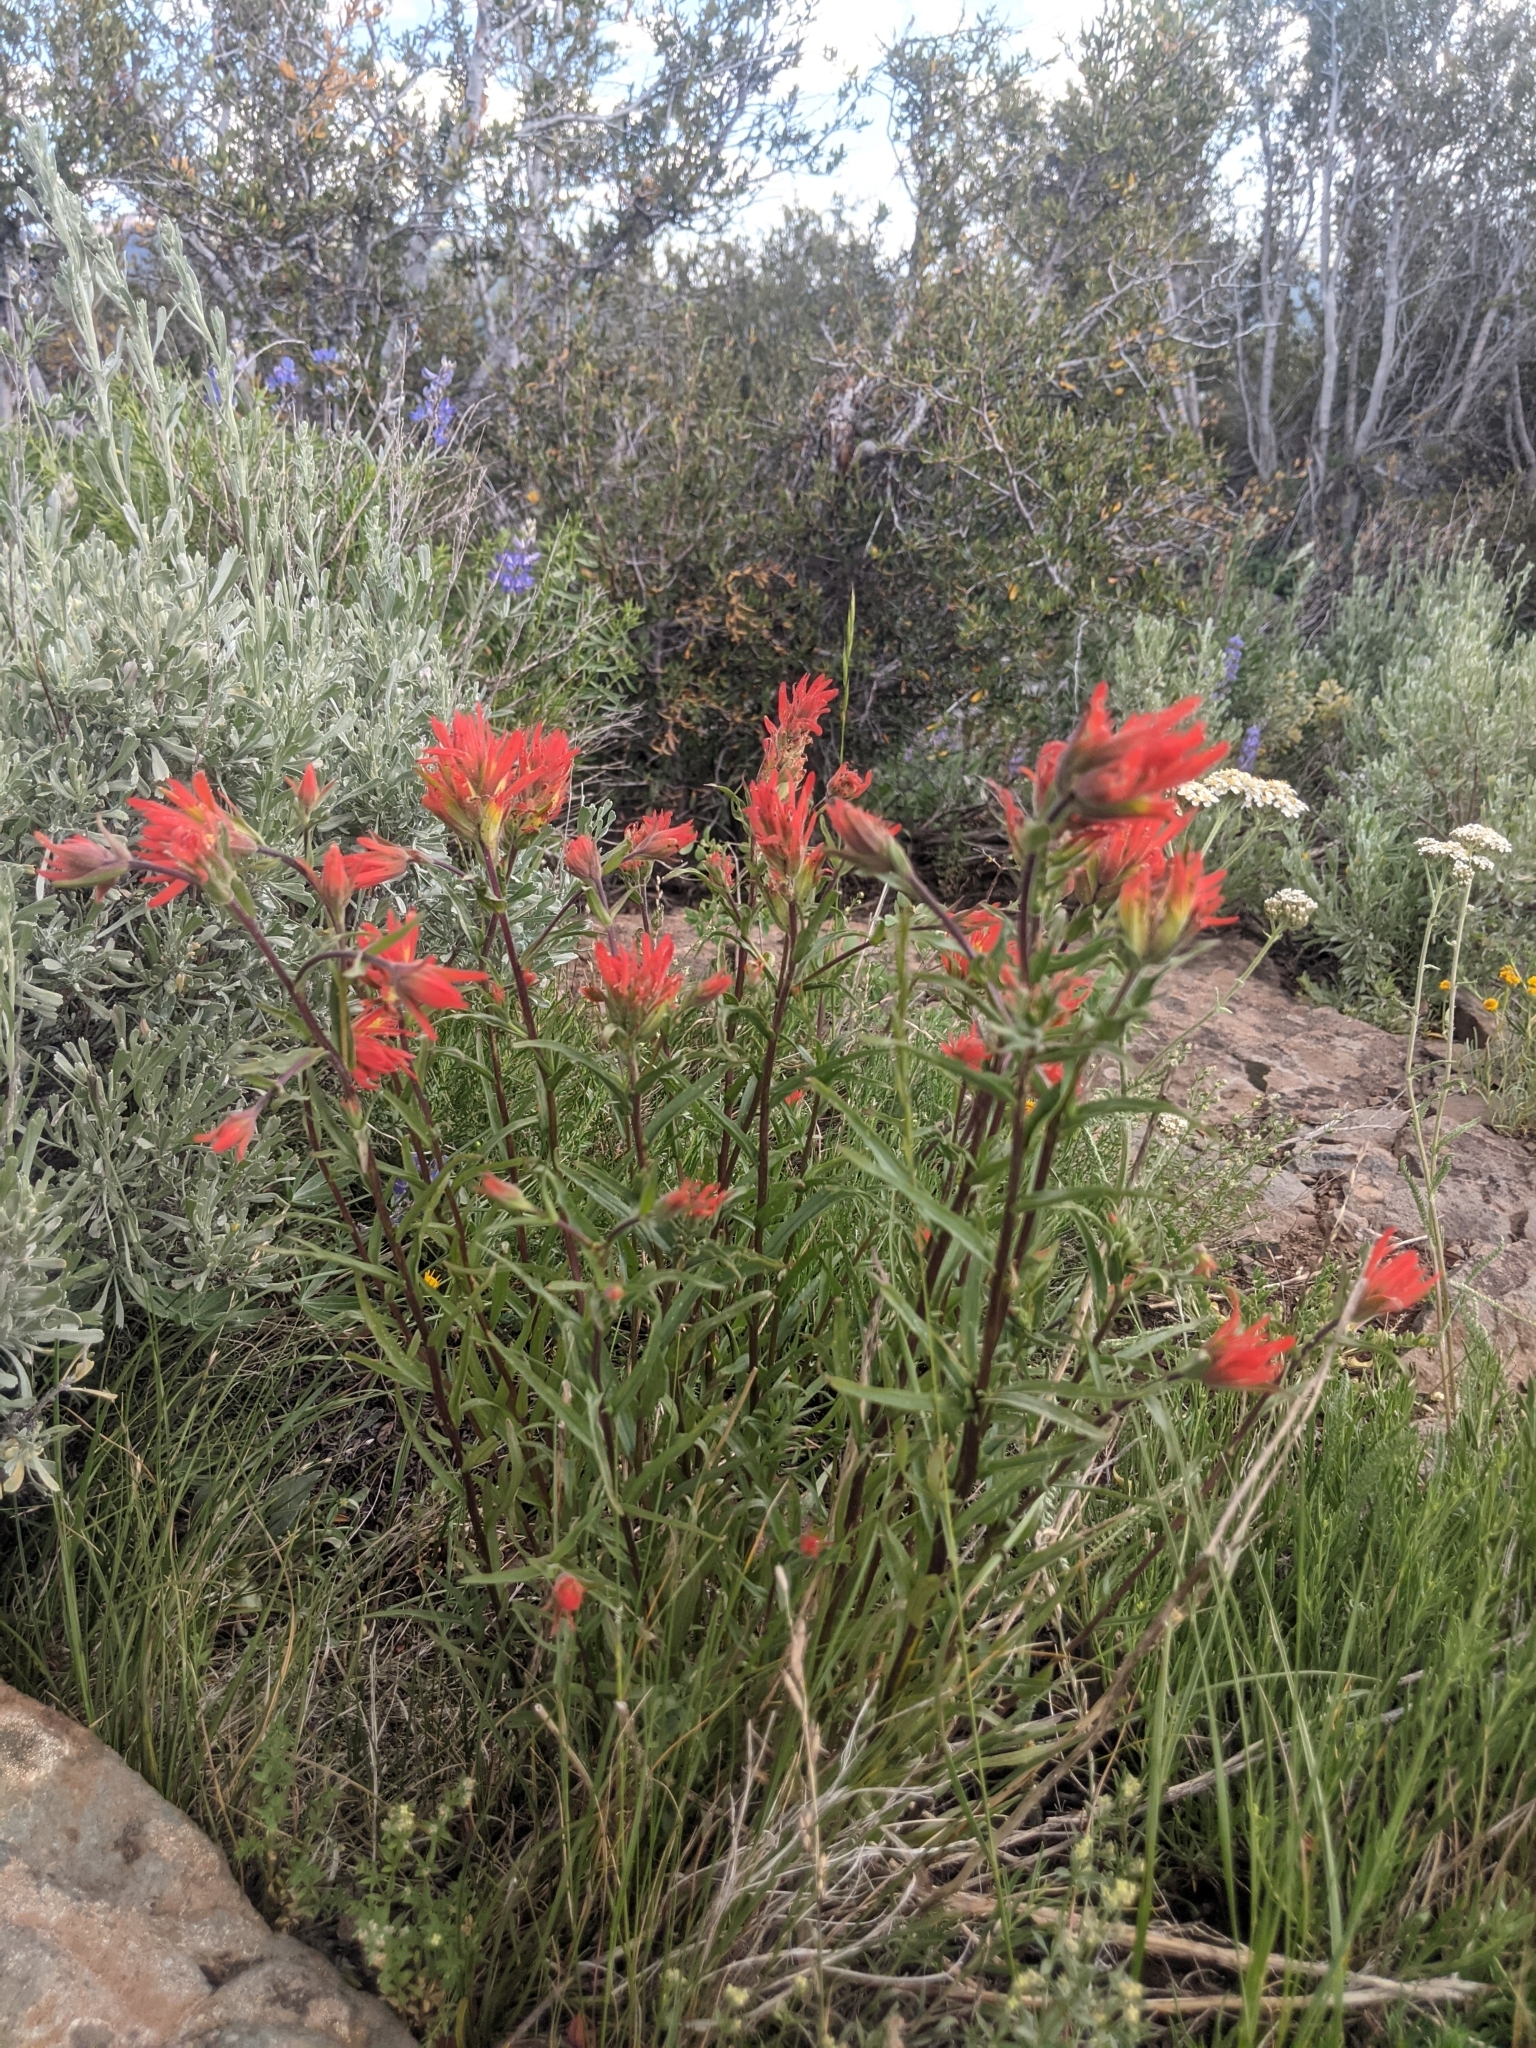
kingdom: Plantae
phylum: Tracheophyta
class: Magnoliopsida
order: Lamiales
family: Orobanchaceae
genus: Castilleja
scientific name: Castilleja peckiana
